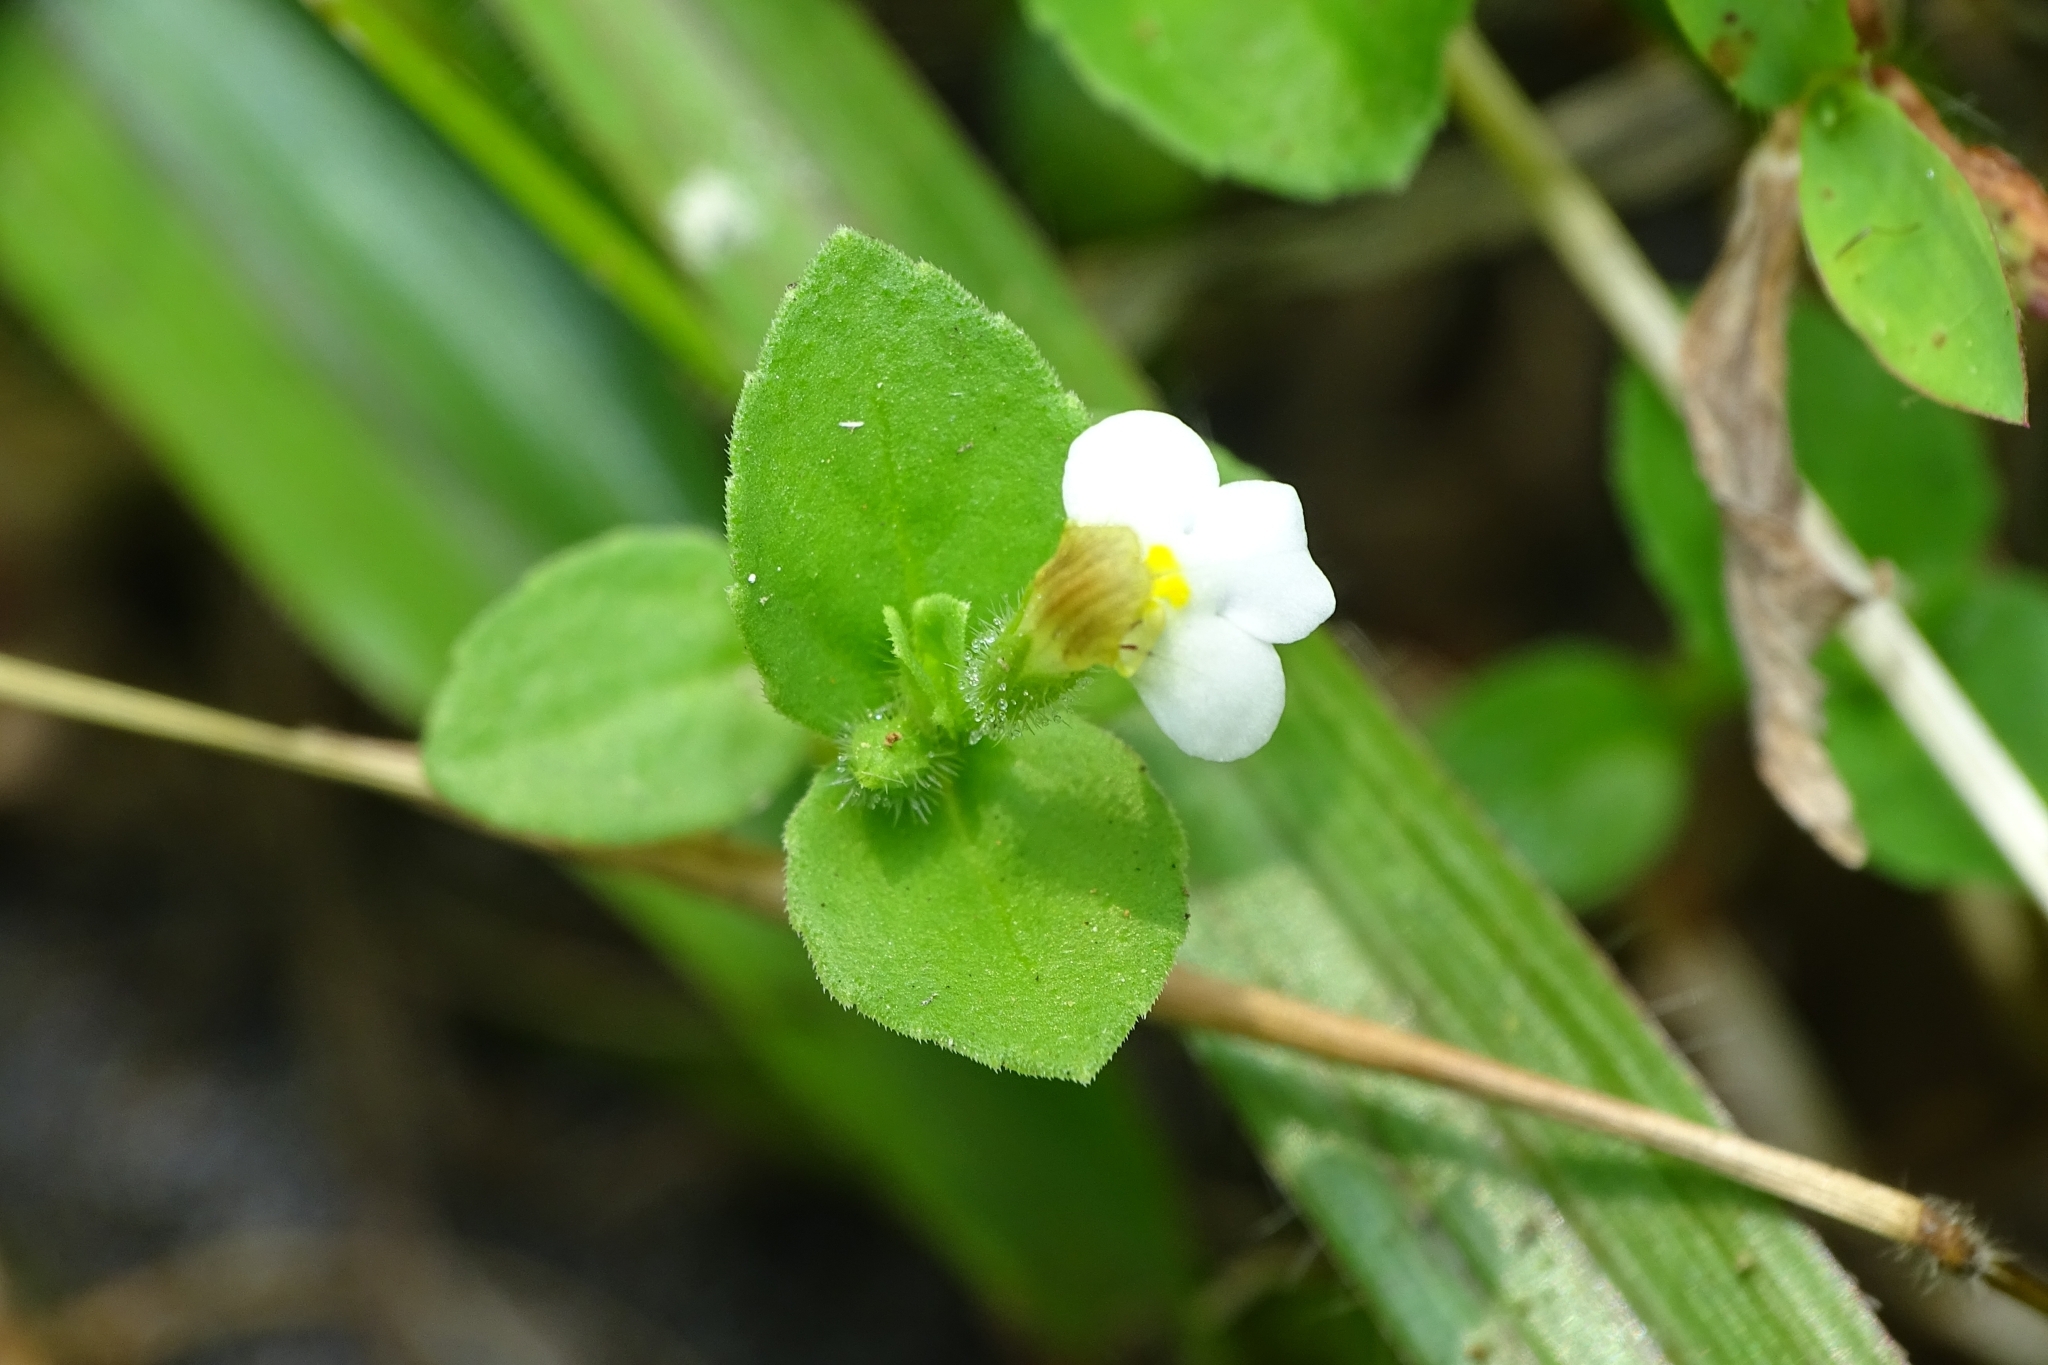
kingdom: Plantae
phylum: Tracheophyta
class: Magnoliopsida
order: Lamiales
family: Linderniaceae
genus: Yamazakia
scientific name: Yamazakia pusilla
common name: Tiny slitwort
